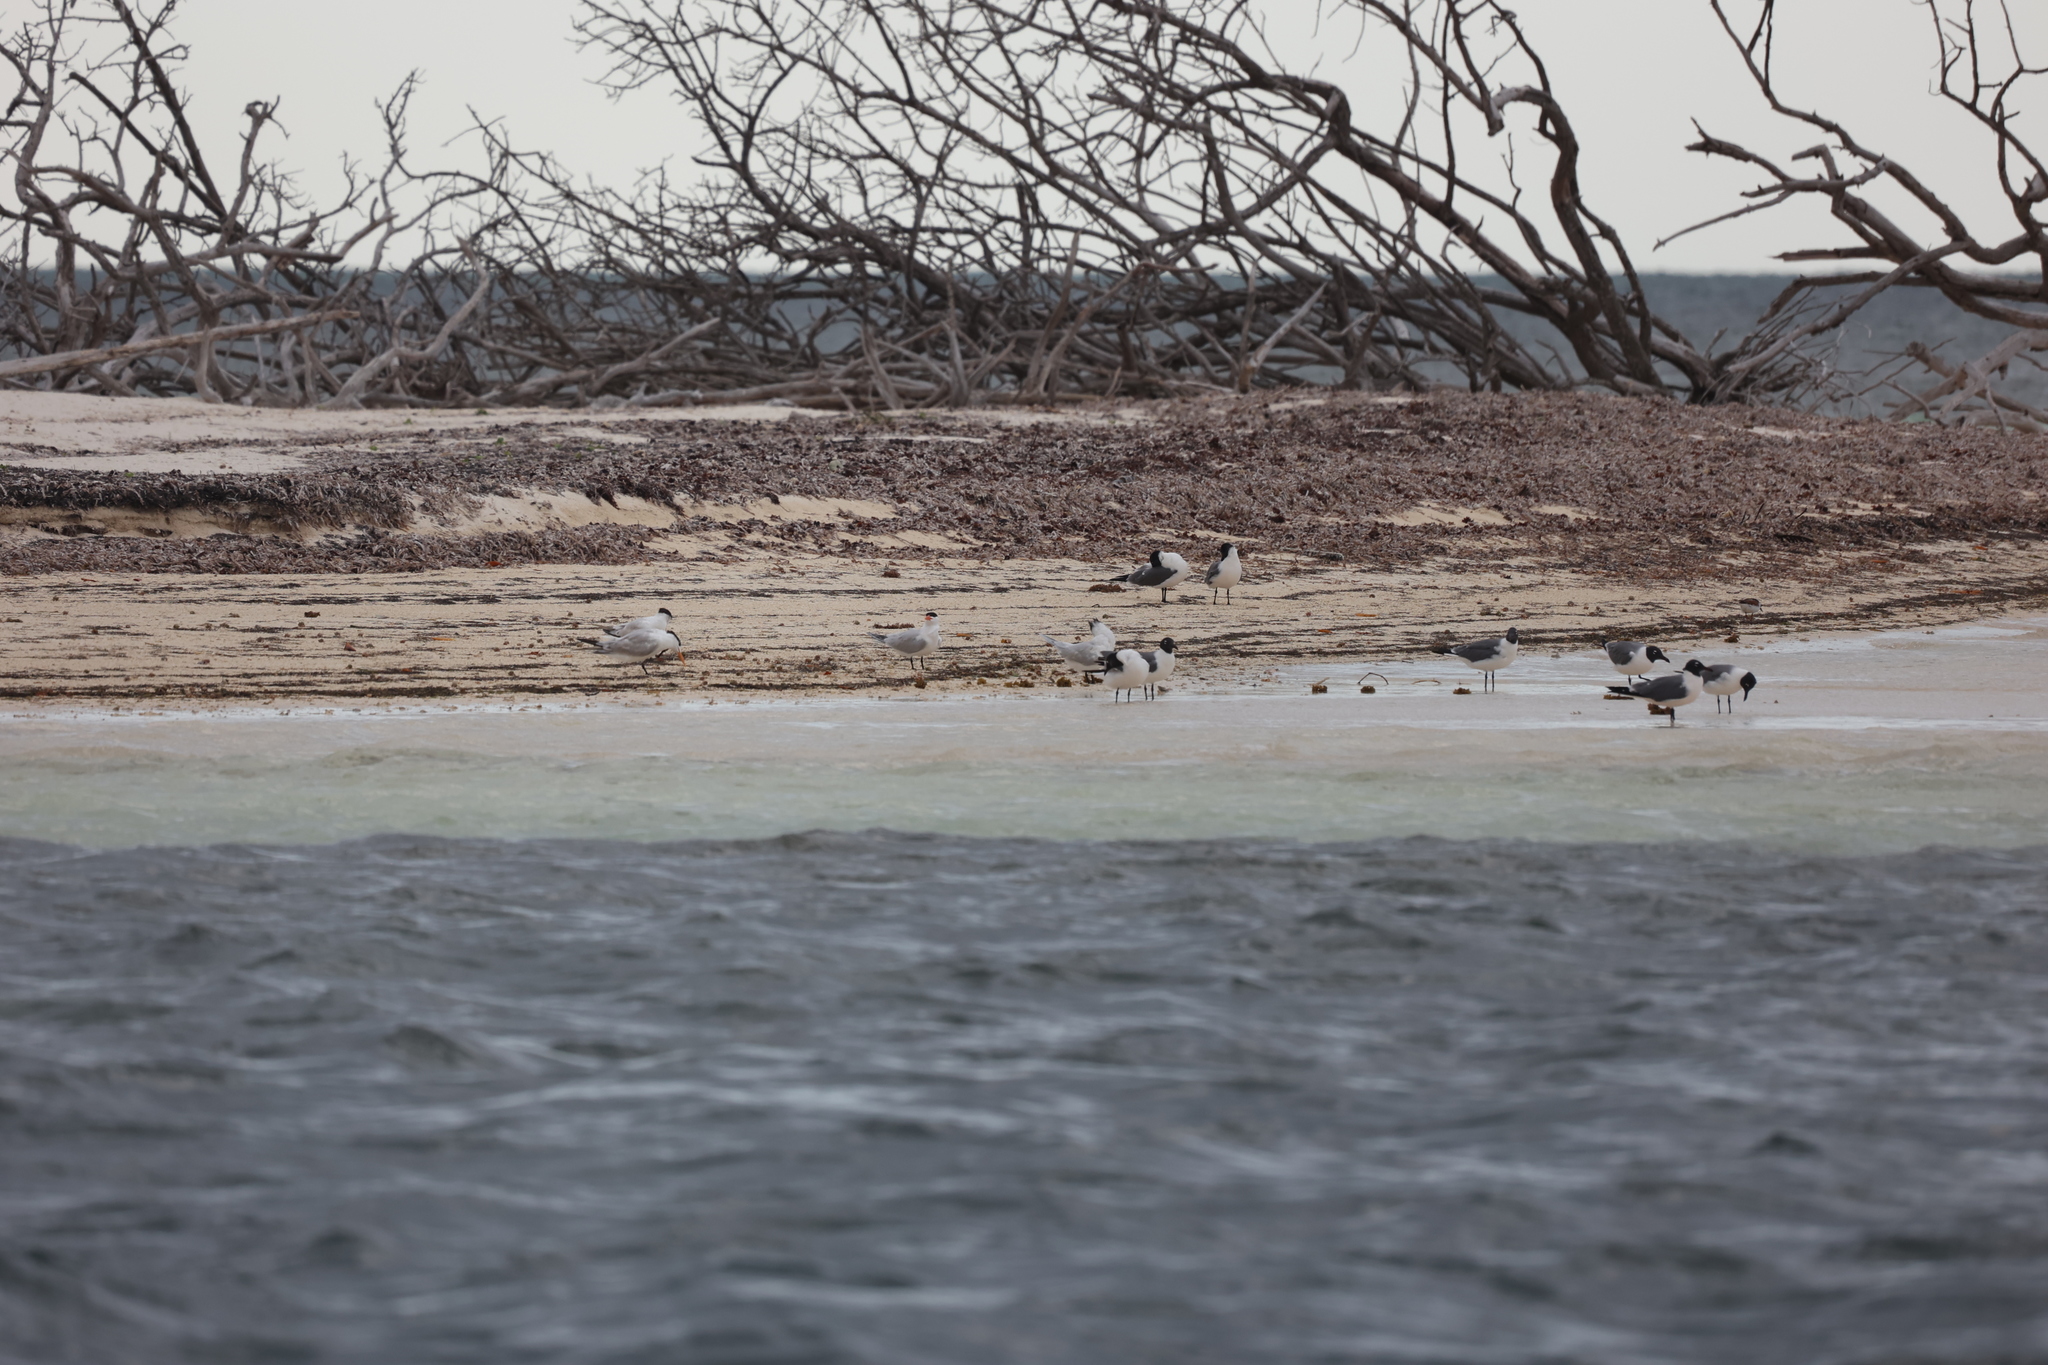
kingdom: Animalia
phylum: Chordata
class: Aves
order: Charadriiformes
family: Laridae
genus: Thalasseus
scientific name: Thalasseus maximus
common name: Royal tern
